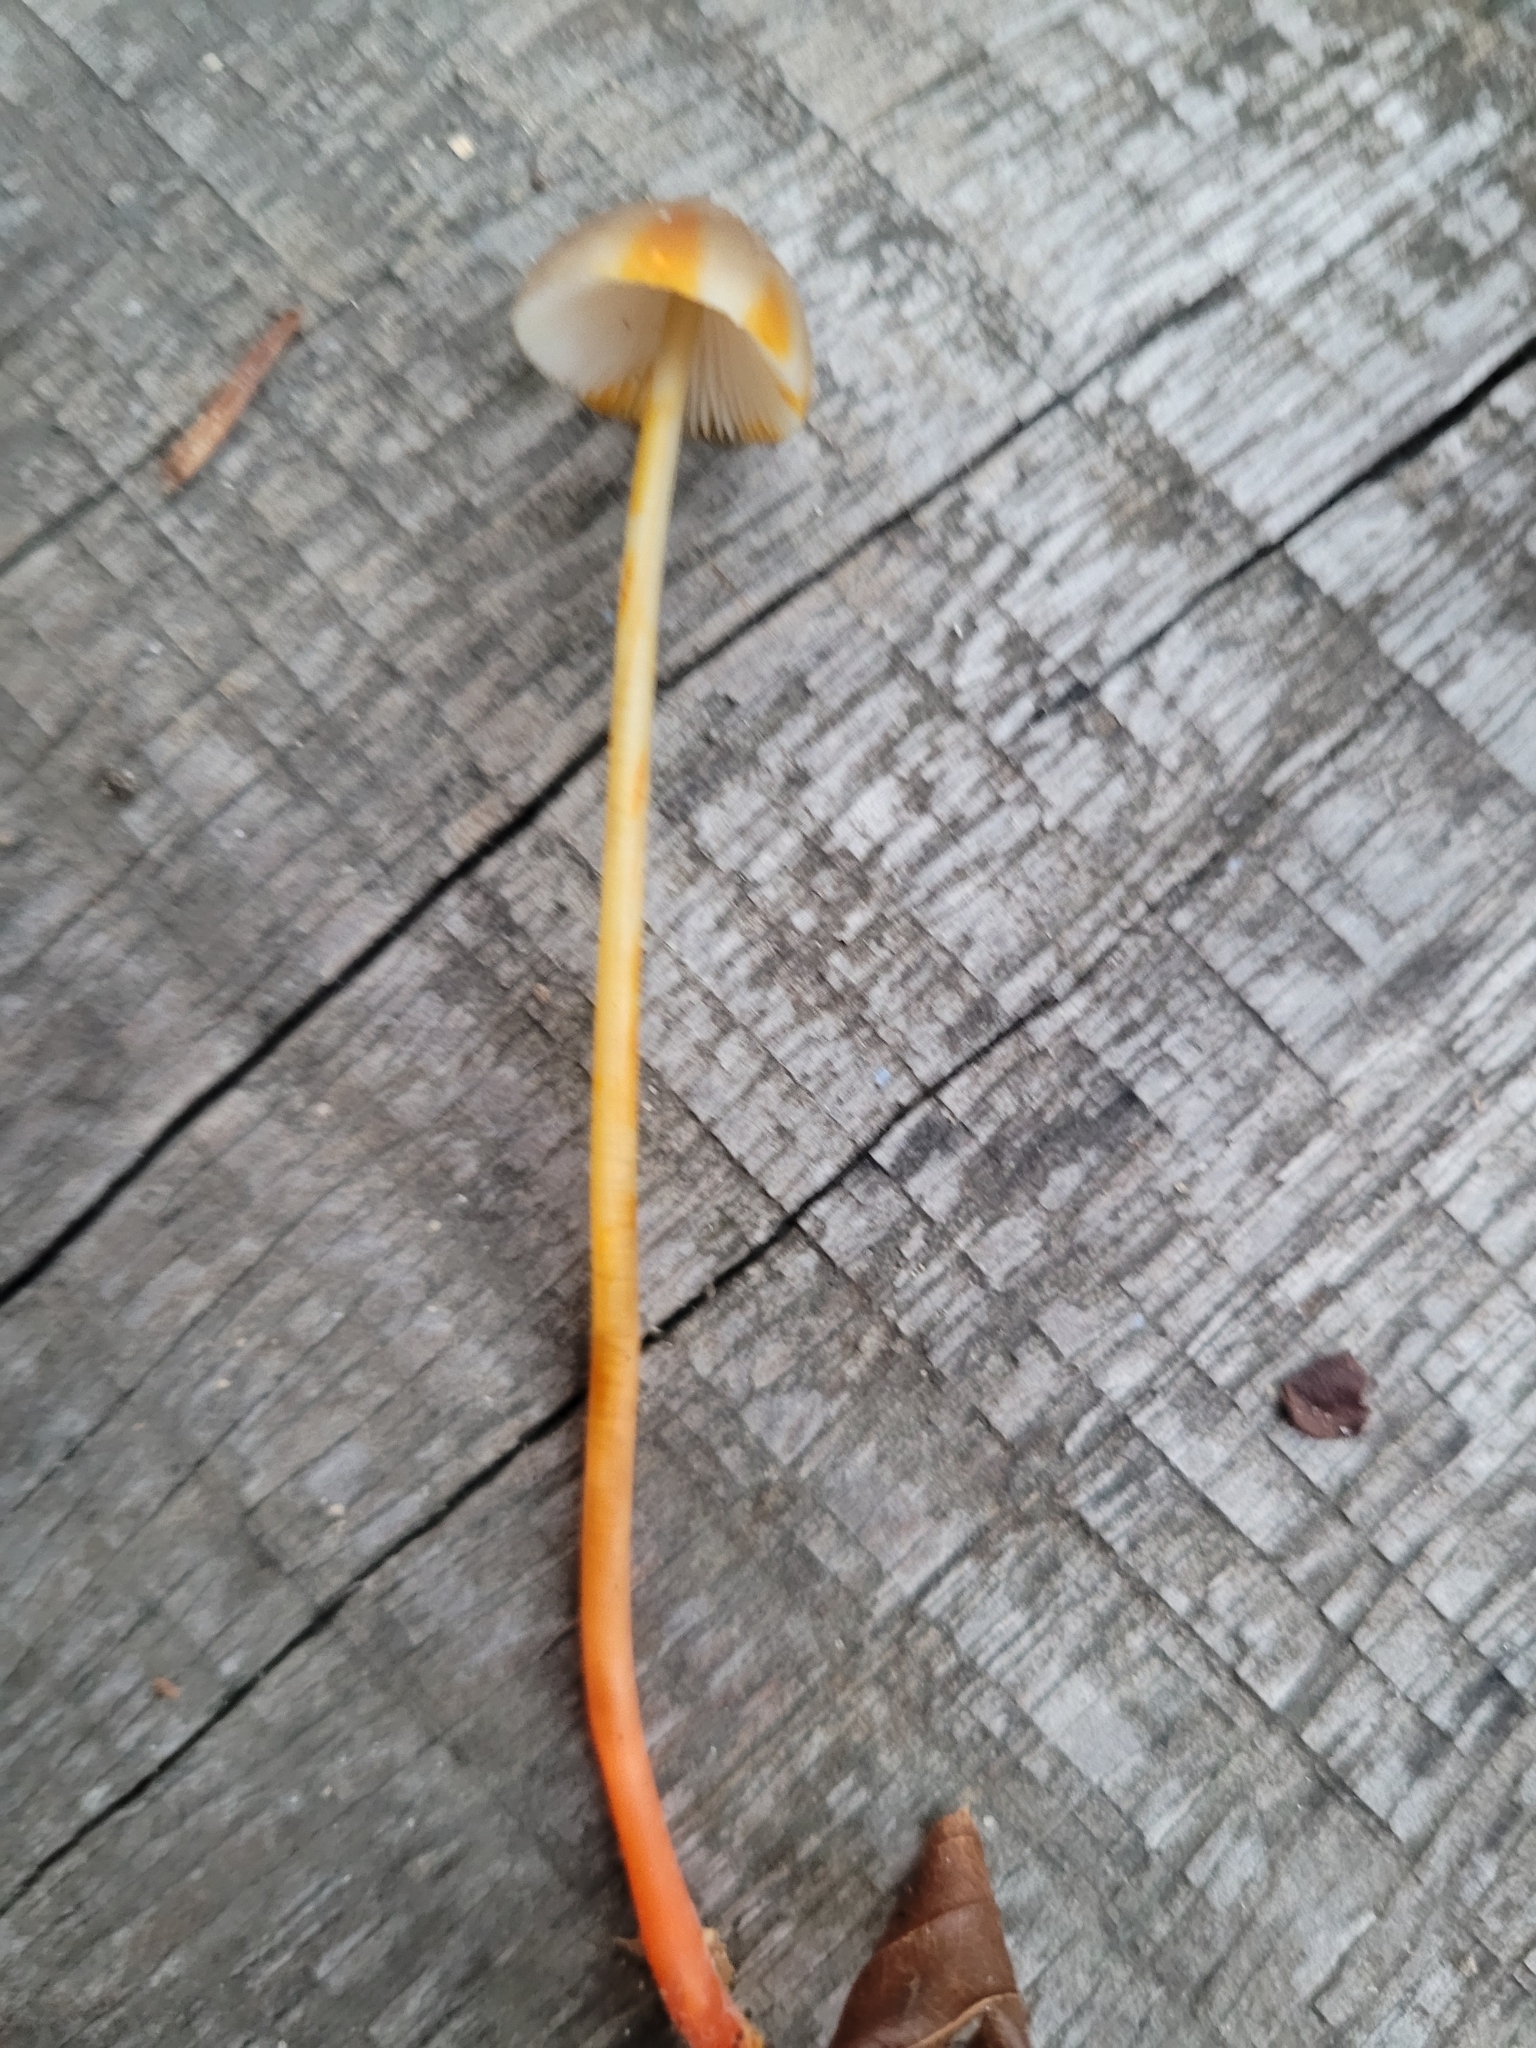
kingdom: Fungi
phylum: Basidiomycota
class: Agaricomycetes
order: Agaricales
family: Mycenaceae
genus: Mycena
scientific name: Mycena crocata
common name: Saffrondrop bonnet
